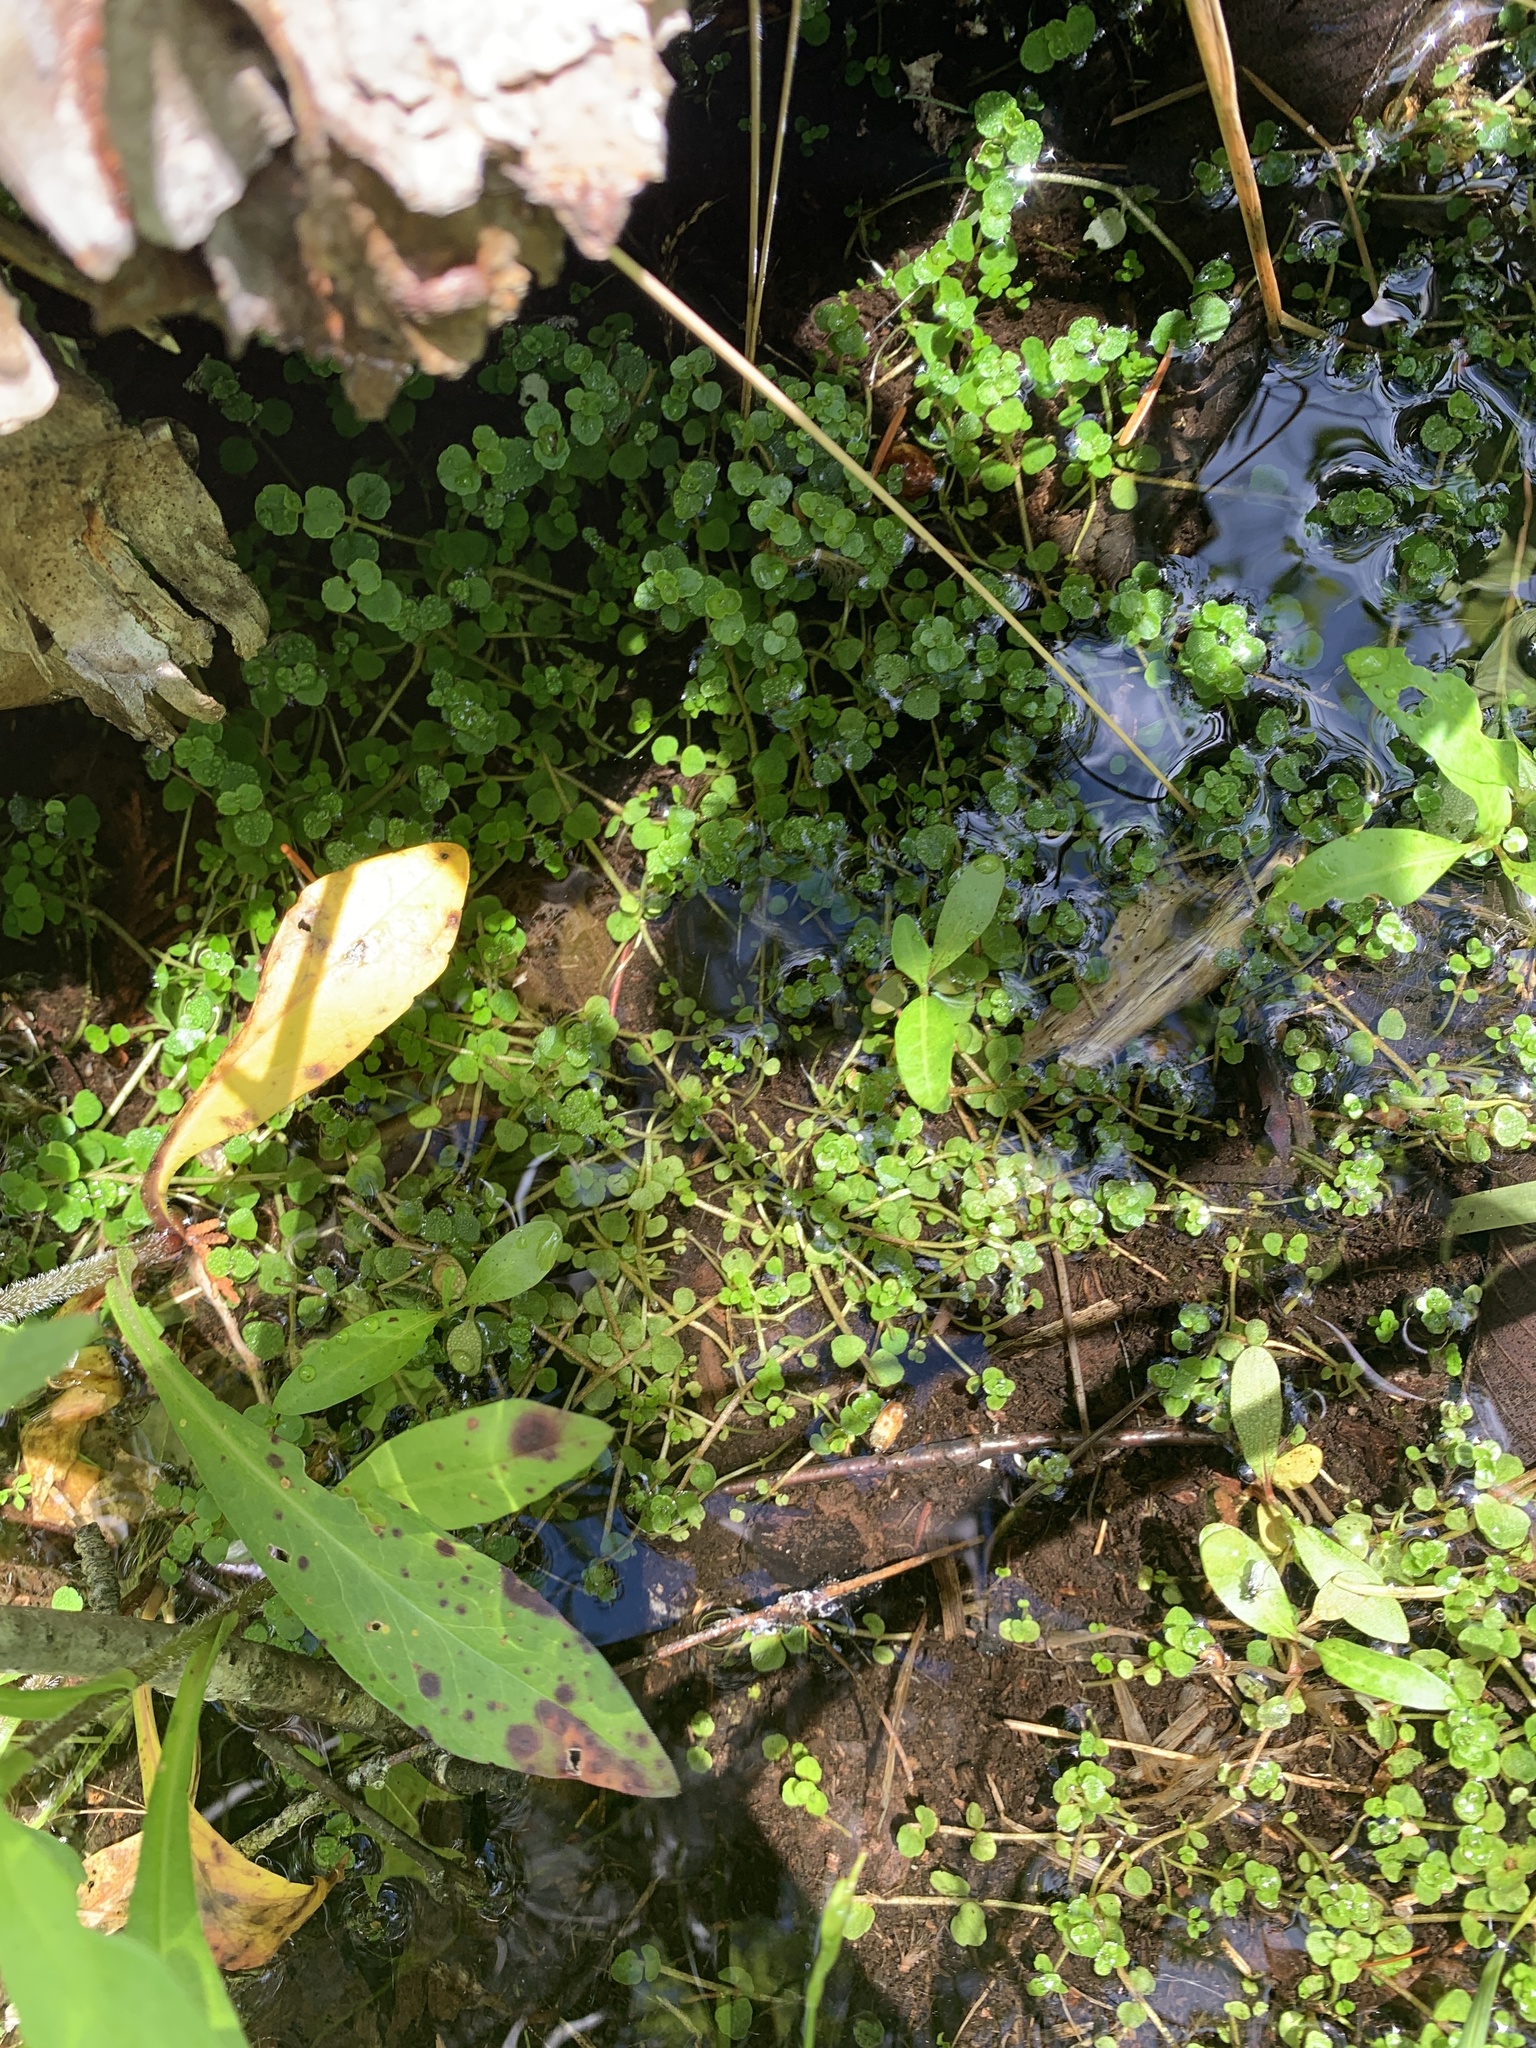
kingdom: Plantae
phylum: Tracheophyta
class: Magnoliopsida
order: Saxifragales
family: Saxifragaceae
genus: Chrysosplenium
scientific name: Chrysosplenium americanum
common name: American golden-saxifrage
